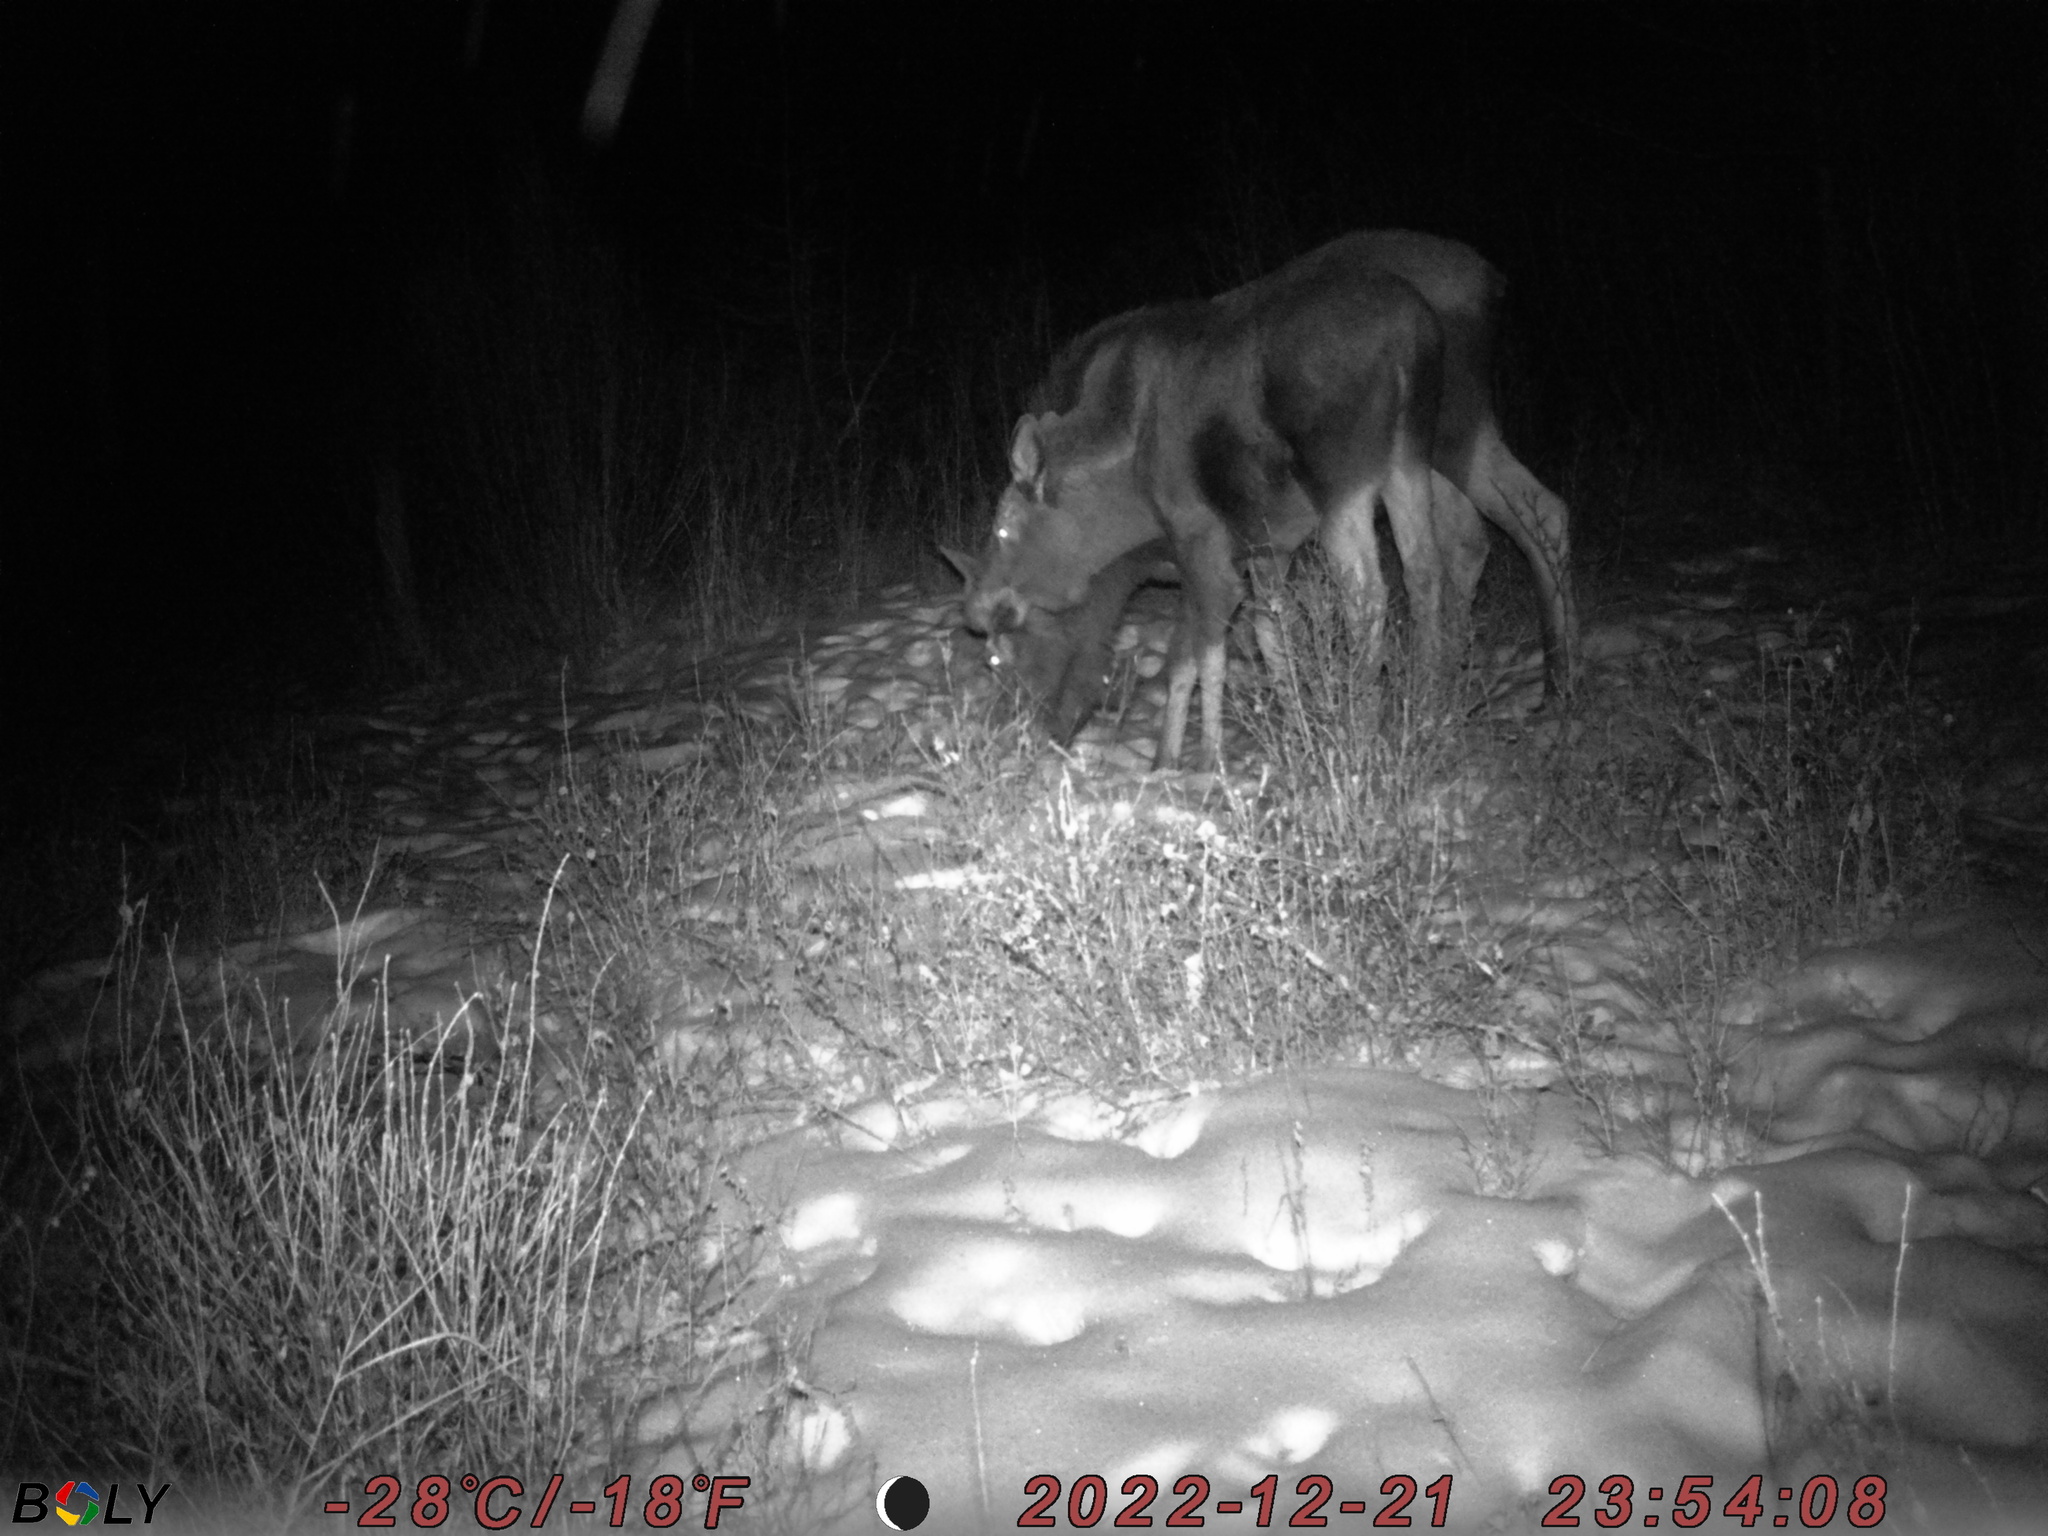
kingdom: Animalia
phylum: Chordata
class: Mammalia
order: Artiodactyla
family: Cervidae
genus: Alces
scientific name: Alces alces
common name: Moose
